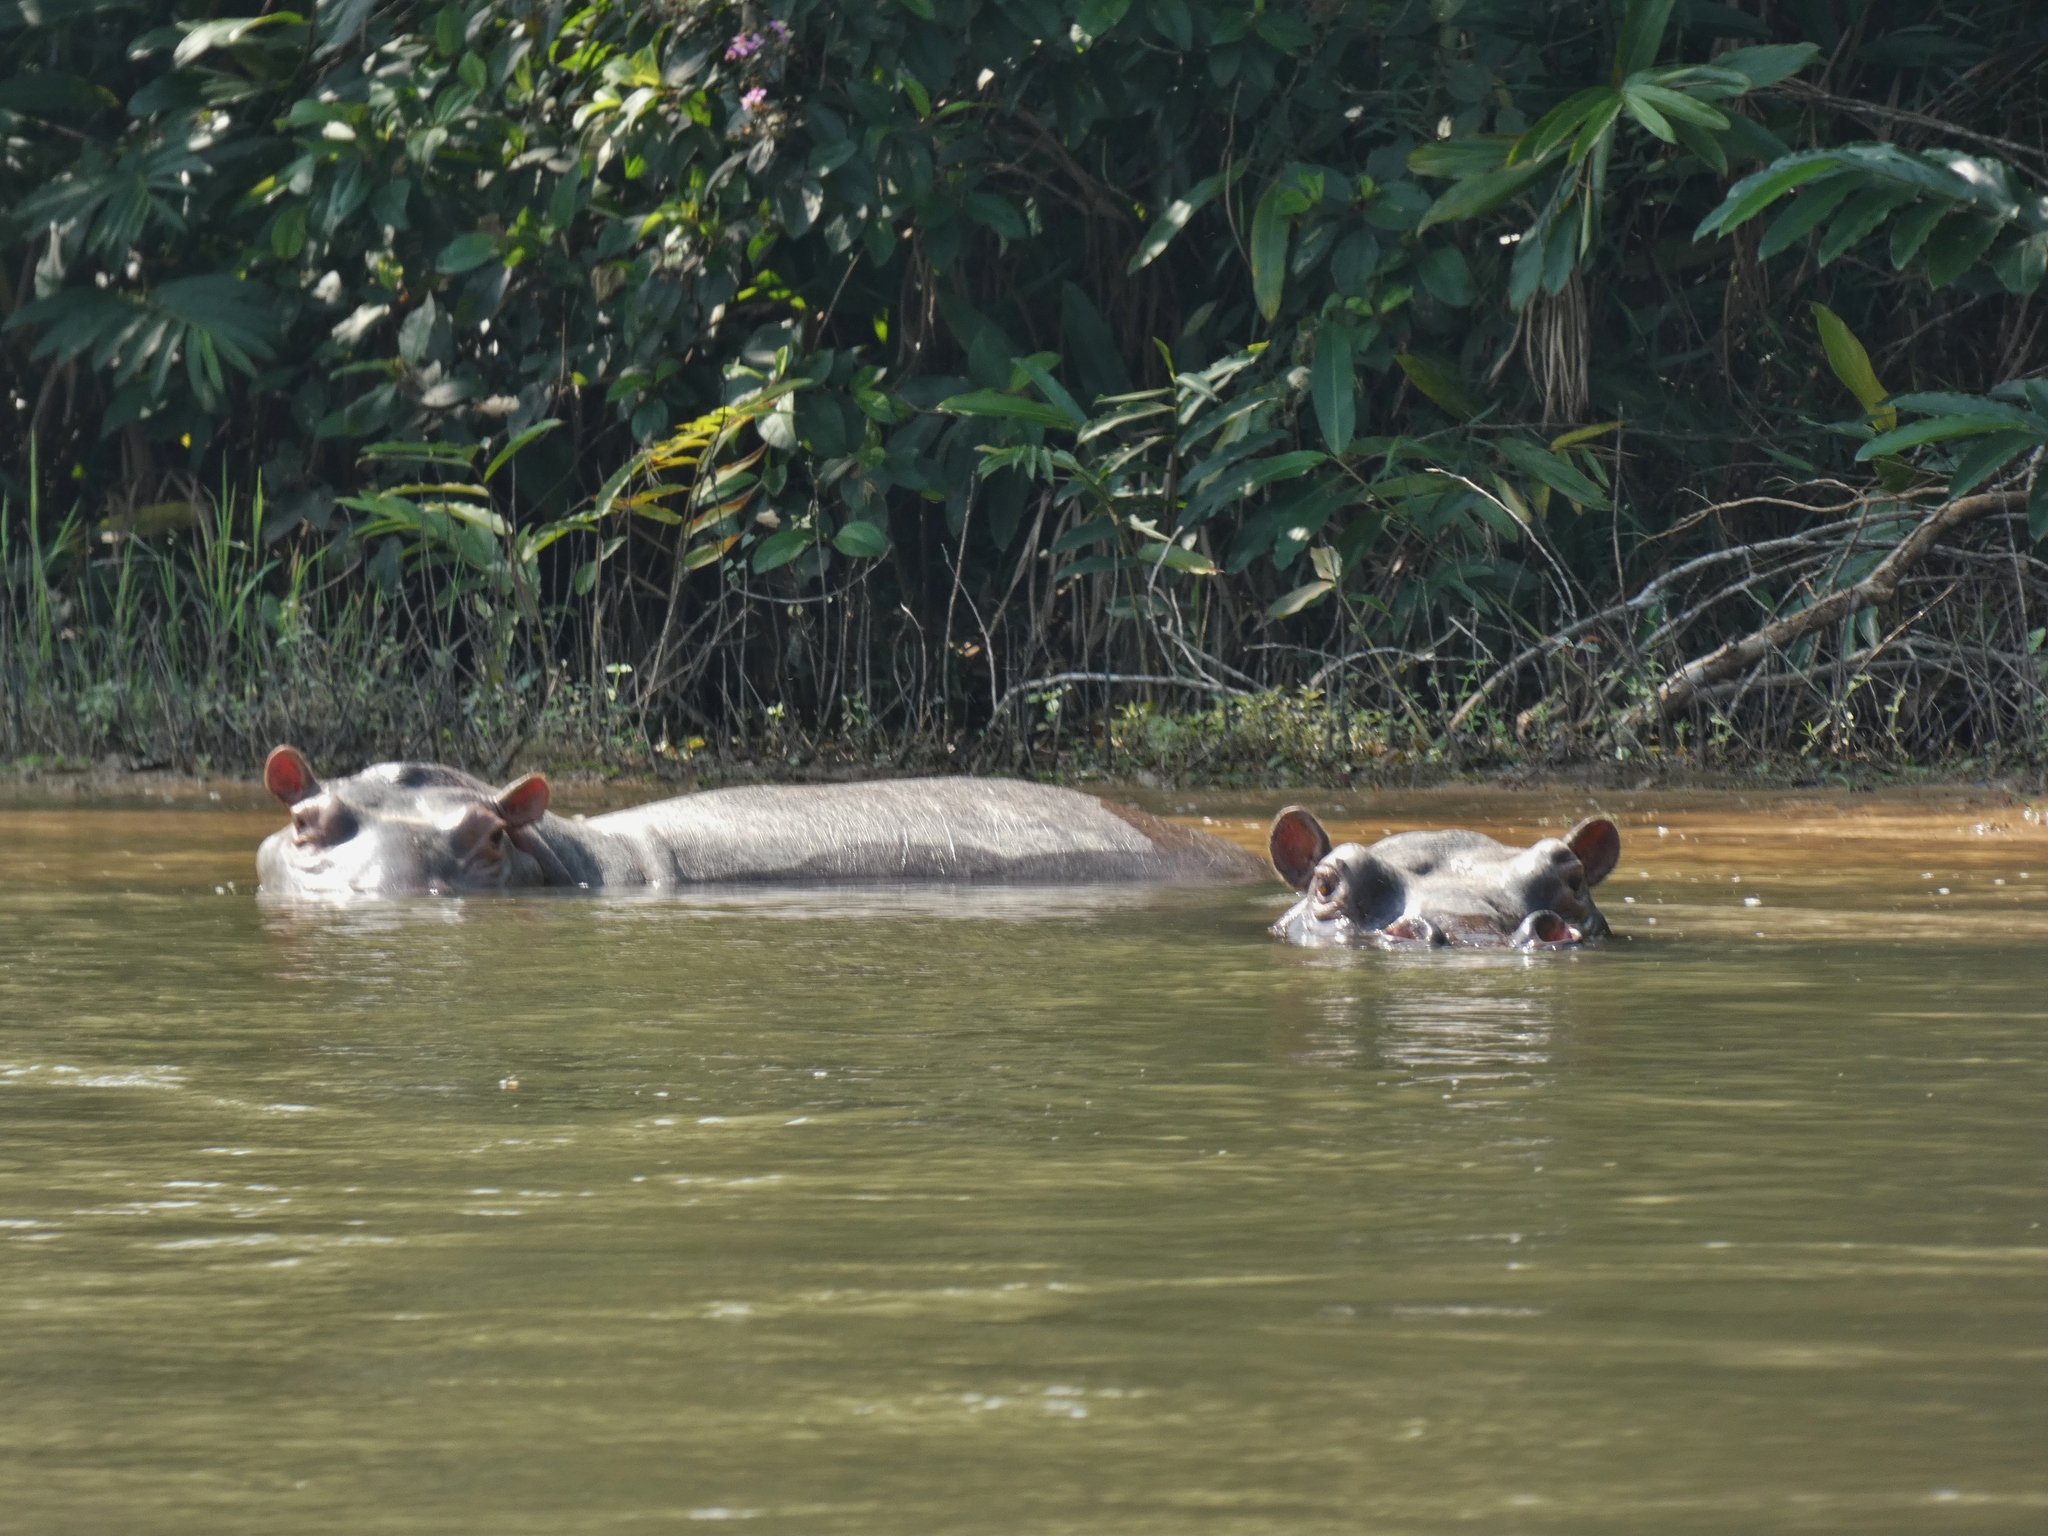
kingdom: Animalia
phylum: Chordata
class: Mammalia
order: Artiodactyla
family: Hippopotamidae
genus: Hippopotamus
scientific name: Hippopotamus amphibius
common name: Common hippopotamus
